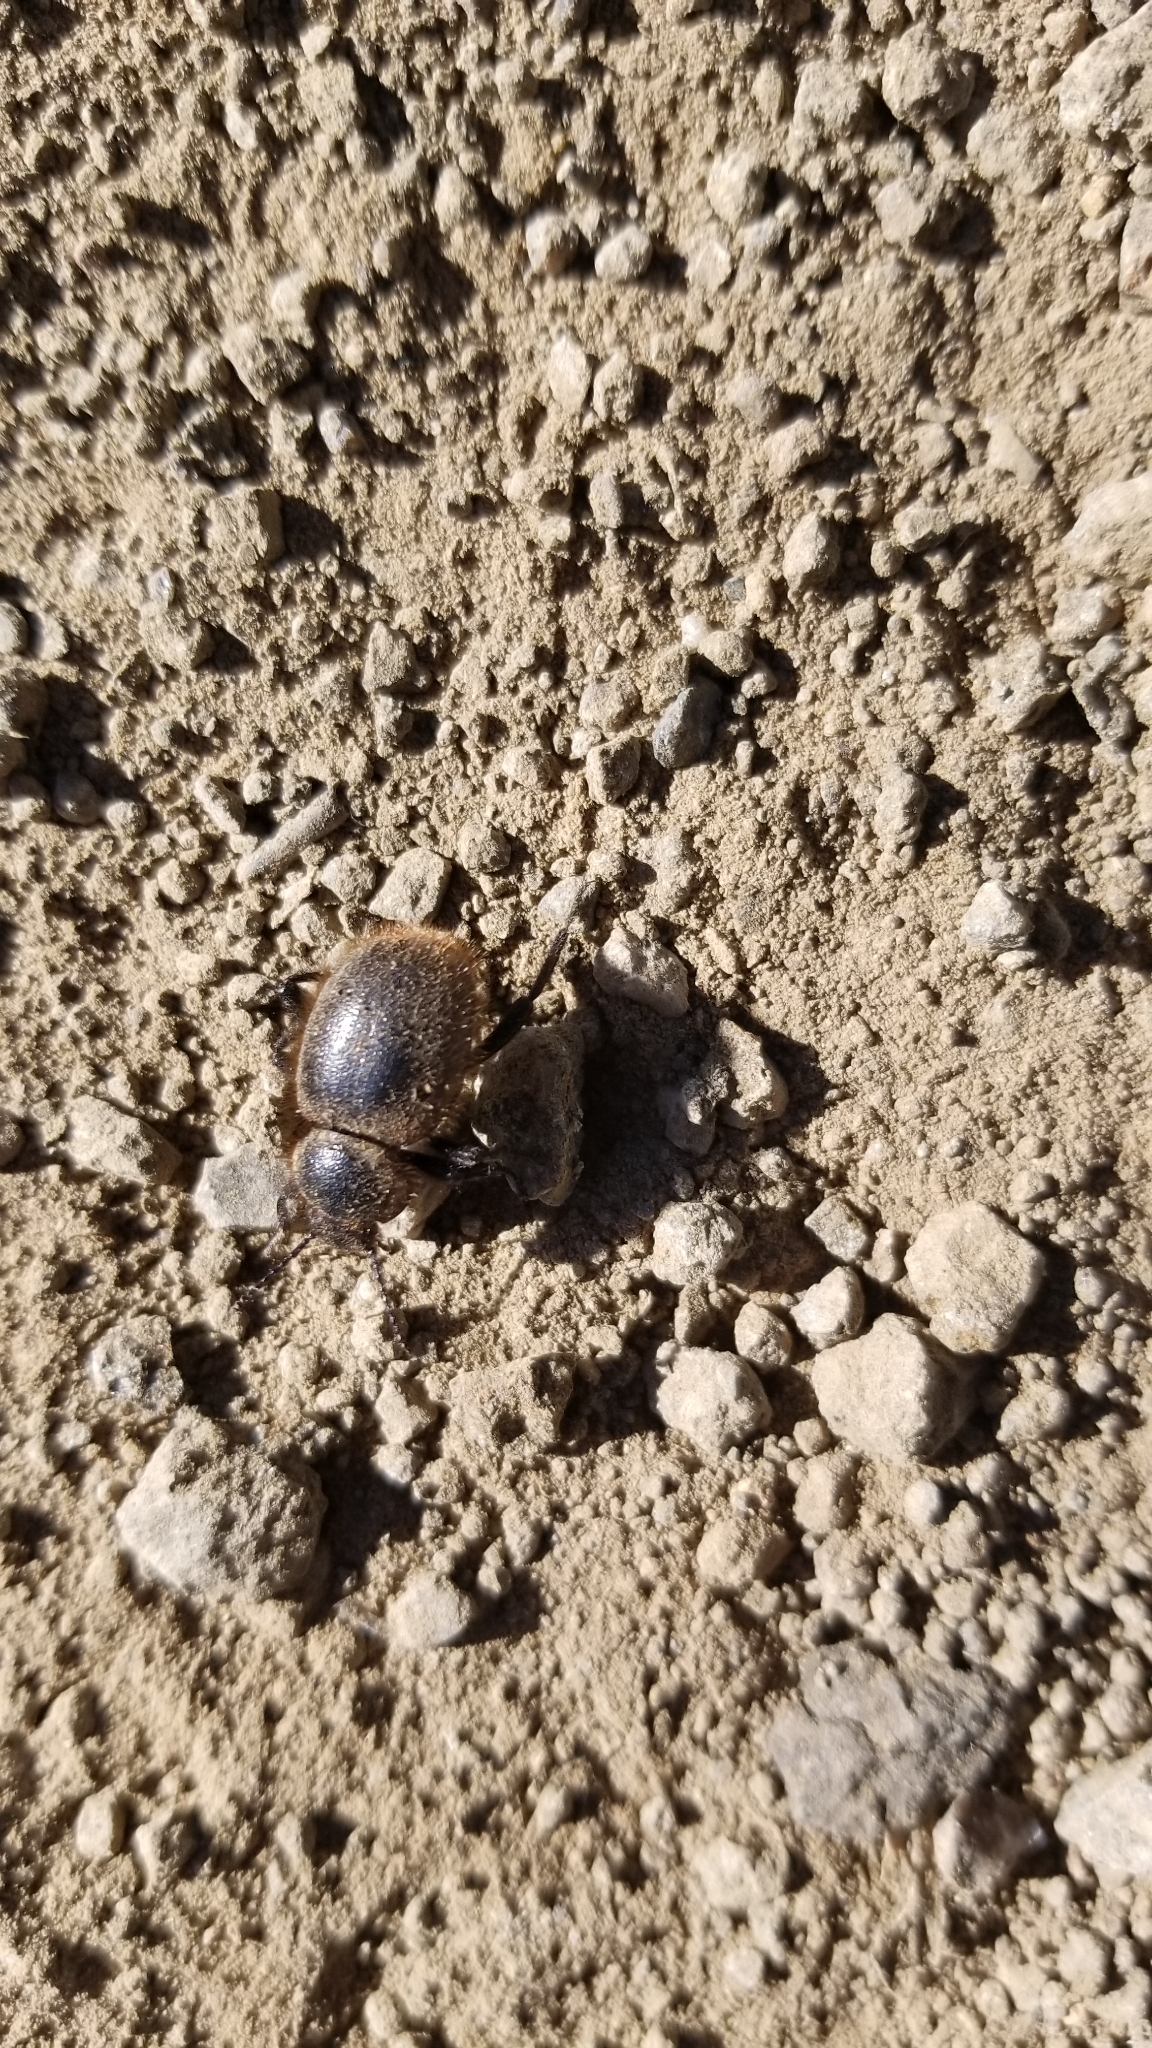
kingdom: Animalia
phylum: Arthropoda
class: Insecta
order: Coleoptera
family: Tenebrionidae
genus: Eleodes
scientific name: Eleodes osculans
